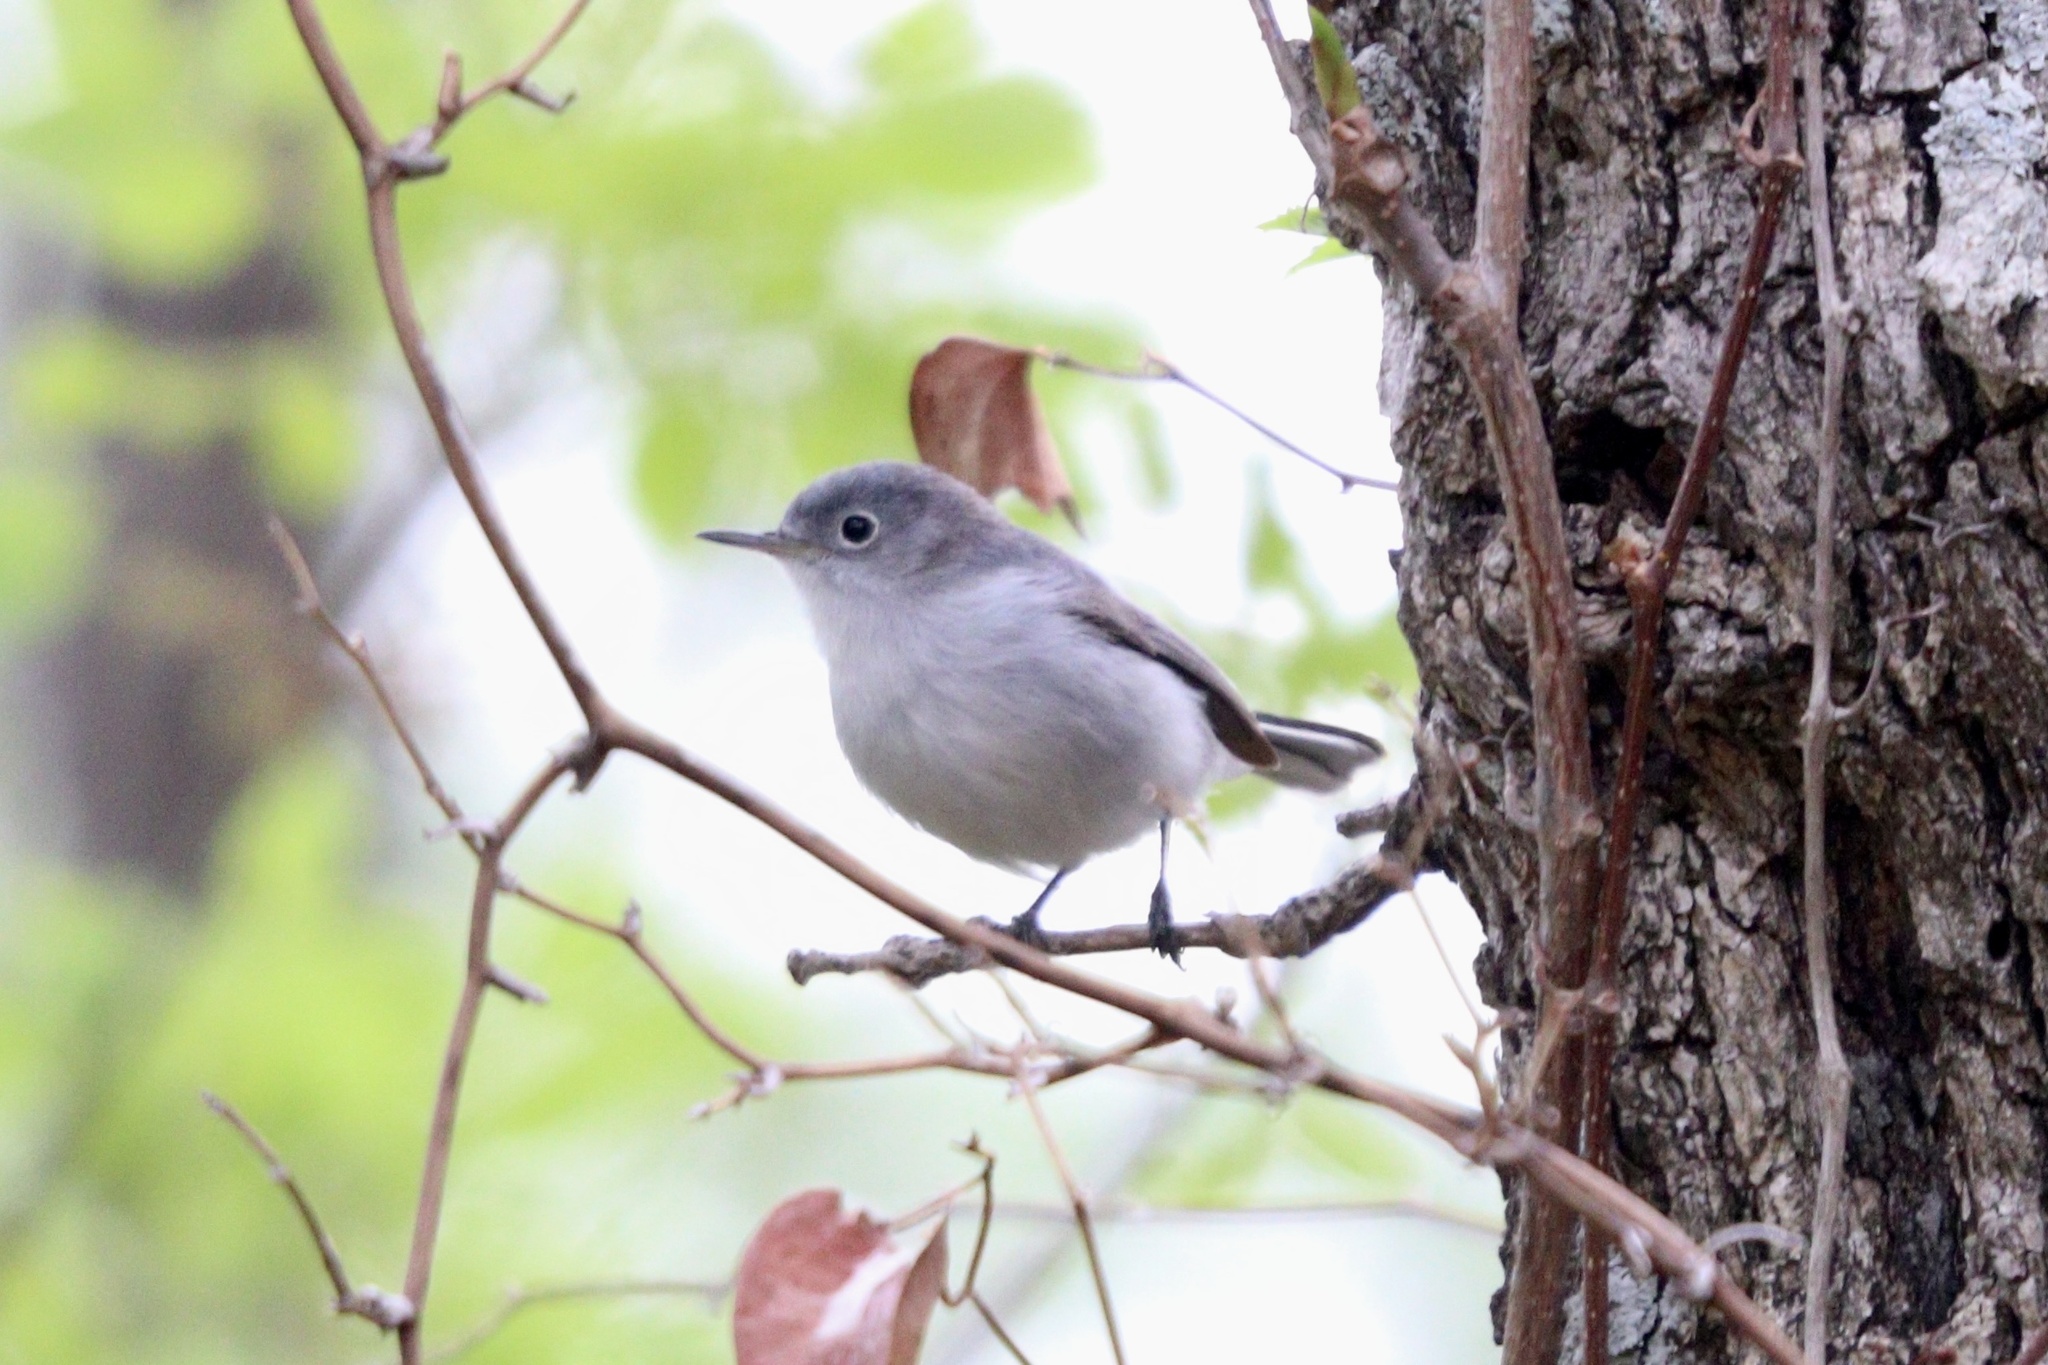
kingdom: Animalia
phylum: Chordata
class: Aves
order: Passeriformes
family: Polioptilidae
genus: Polioptila
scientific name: Polioptila caerulea
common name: Blue-gray gnatcatcher
